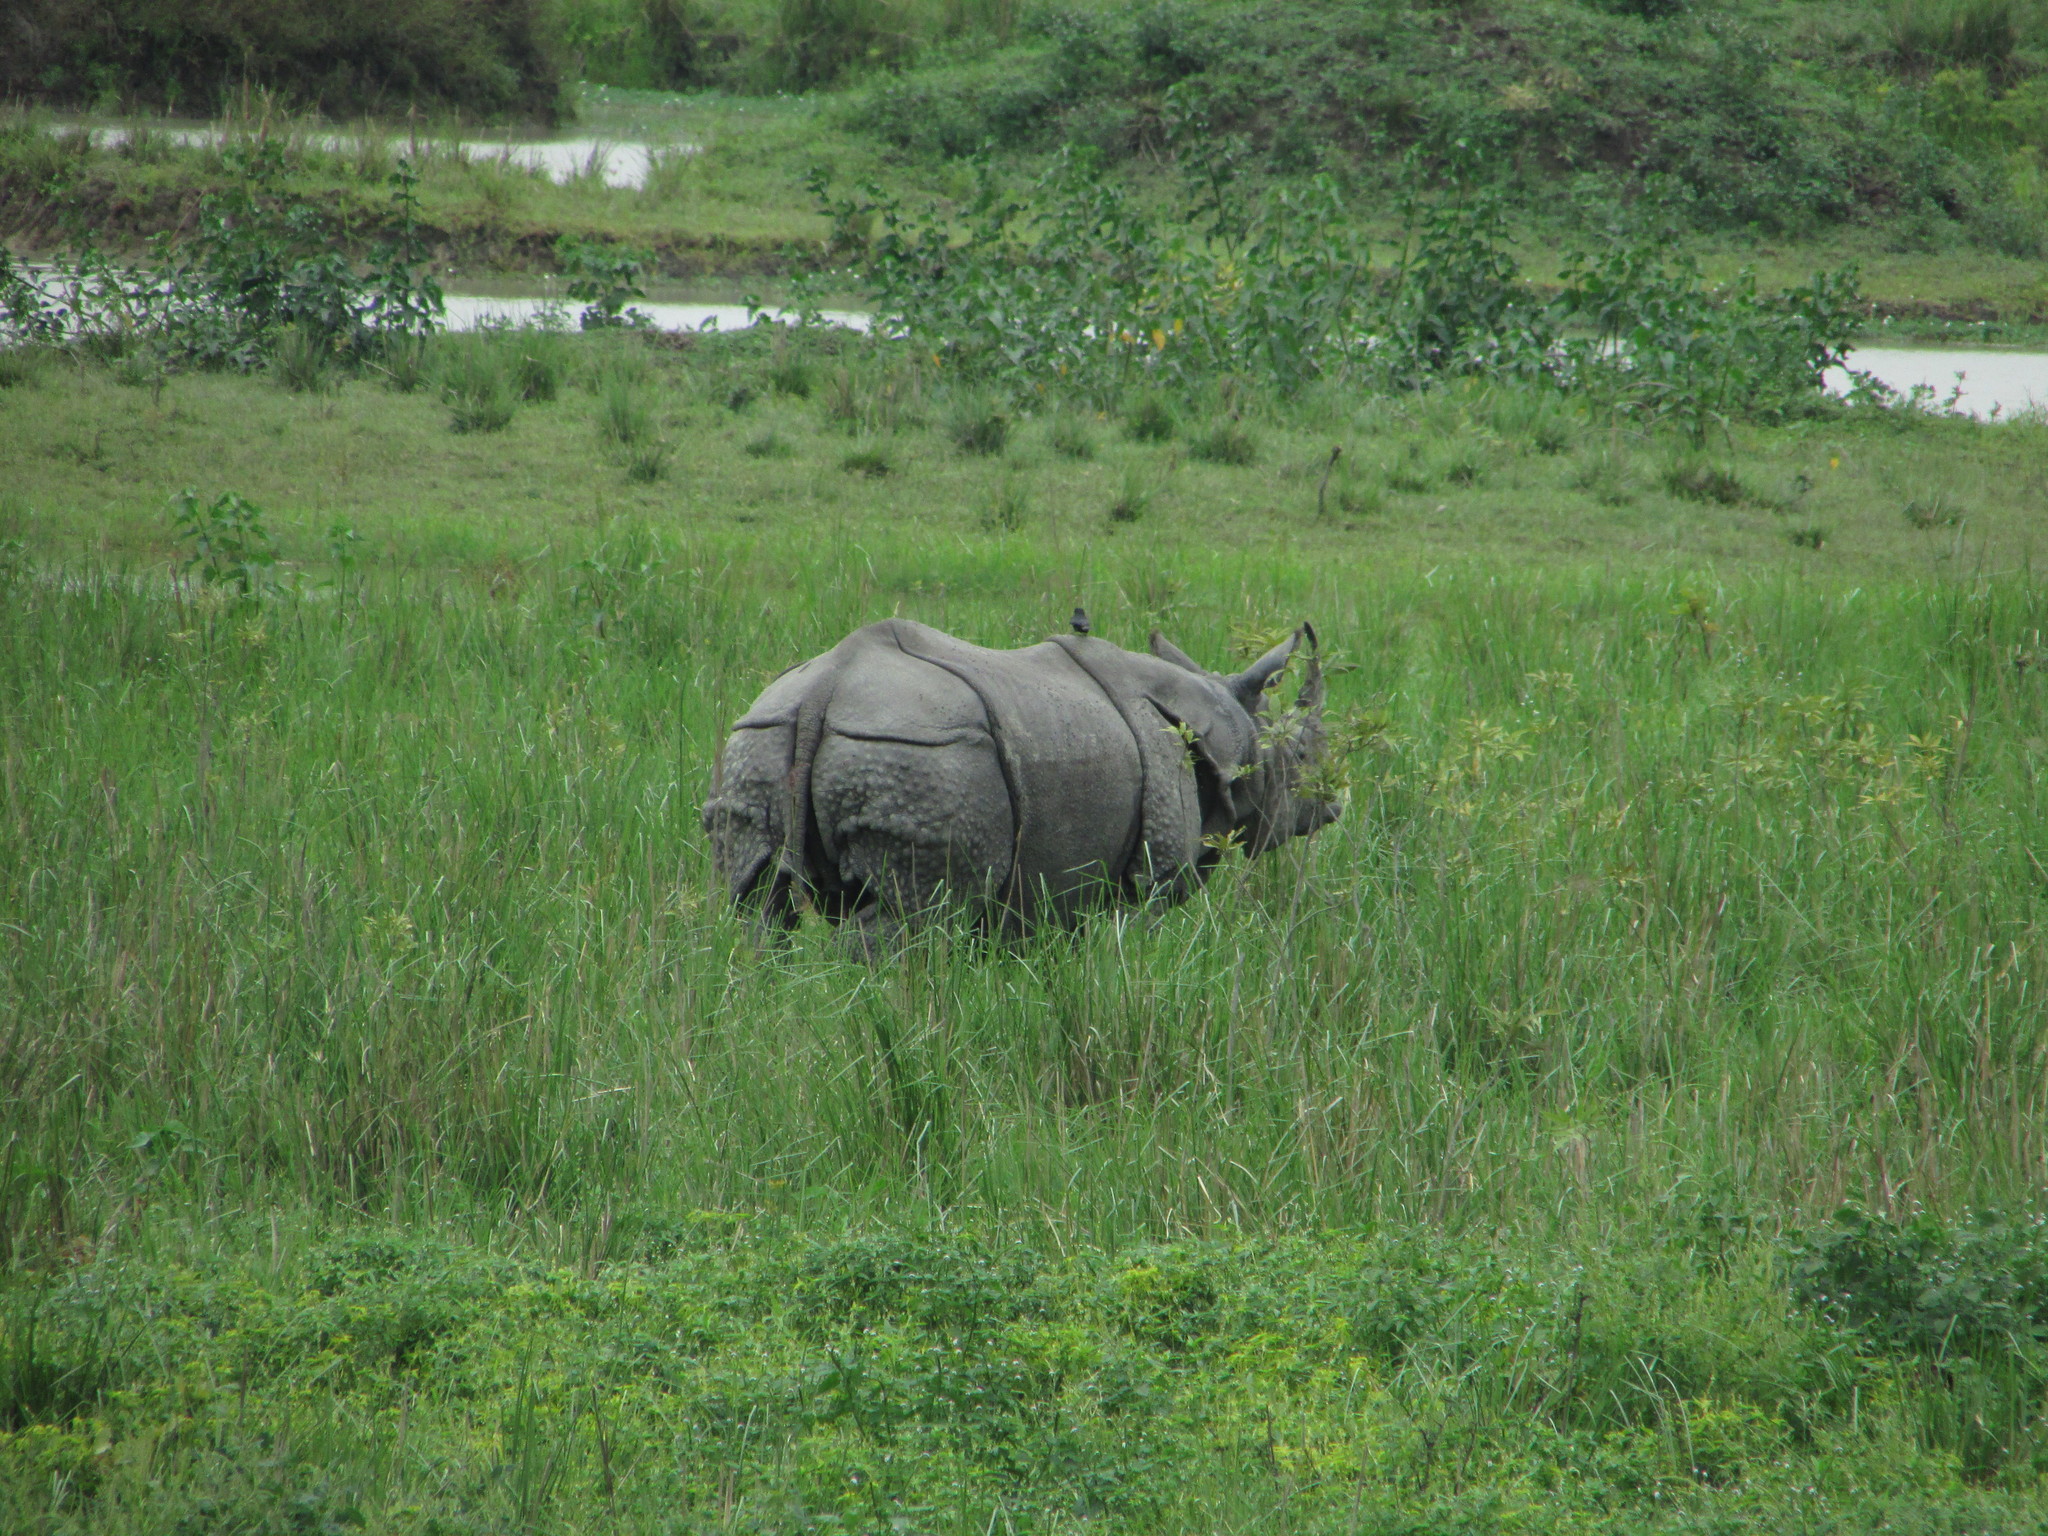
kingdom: Animalia
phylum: Chordata
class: Mammalia
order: Perissodactyla
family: Rhinocerotidae
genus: Rhinoceros
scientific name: Rhinoceros unicornis
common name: Indian rhinoceros
